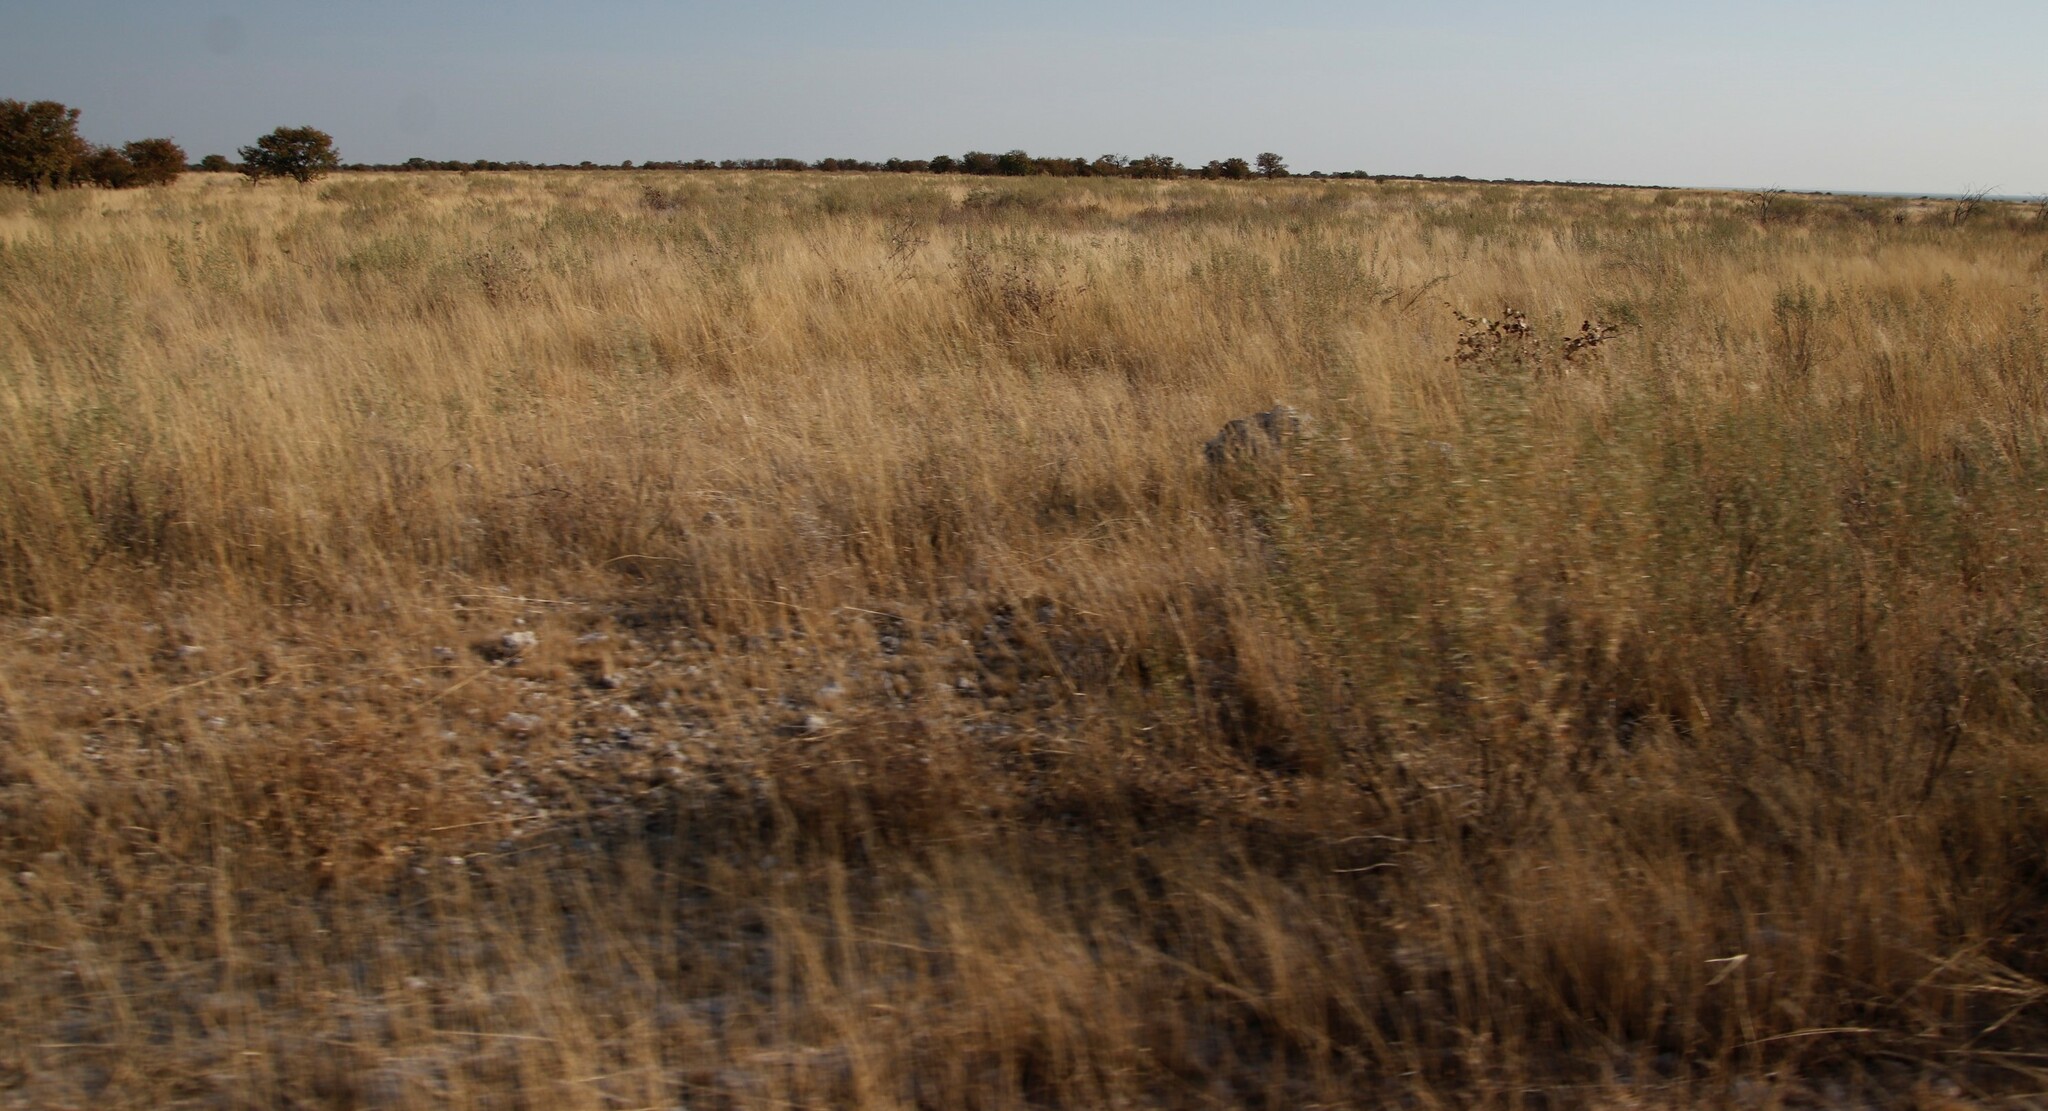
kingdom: Plantae
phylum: Tracheophyta
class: Magnoliopsida
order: Asterales
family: Asteraceae
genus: Pechuel-loeschea
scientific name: Pechuel-loeschea leubnitziae
